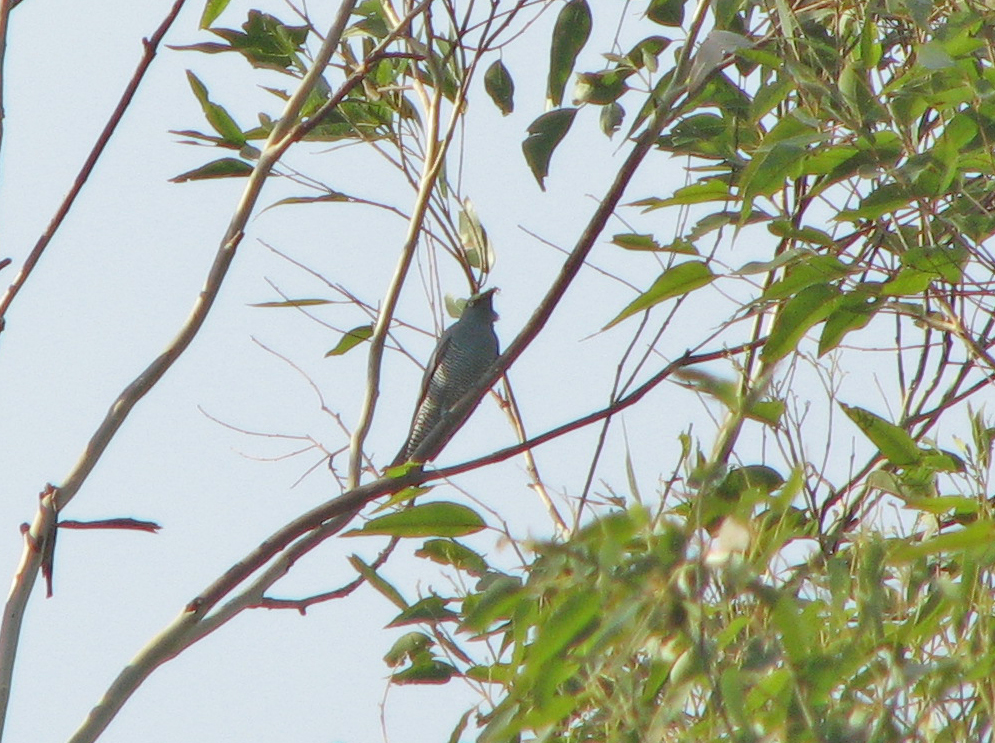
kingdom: Animalia
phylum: Chordata
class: Aves
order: Passeriformes
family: Campephagidae
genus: Coracina
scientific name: Coracina lineata
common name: Barred cuckooshrike
